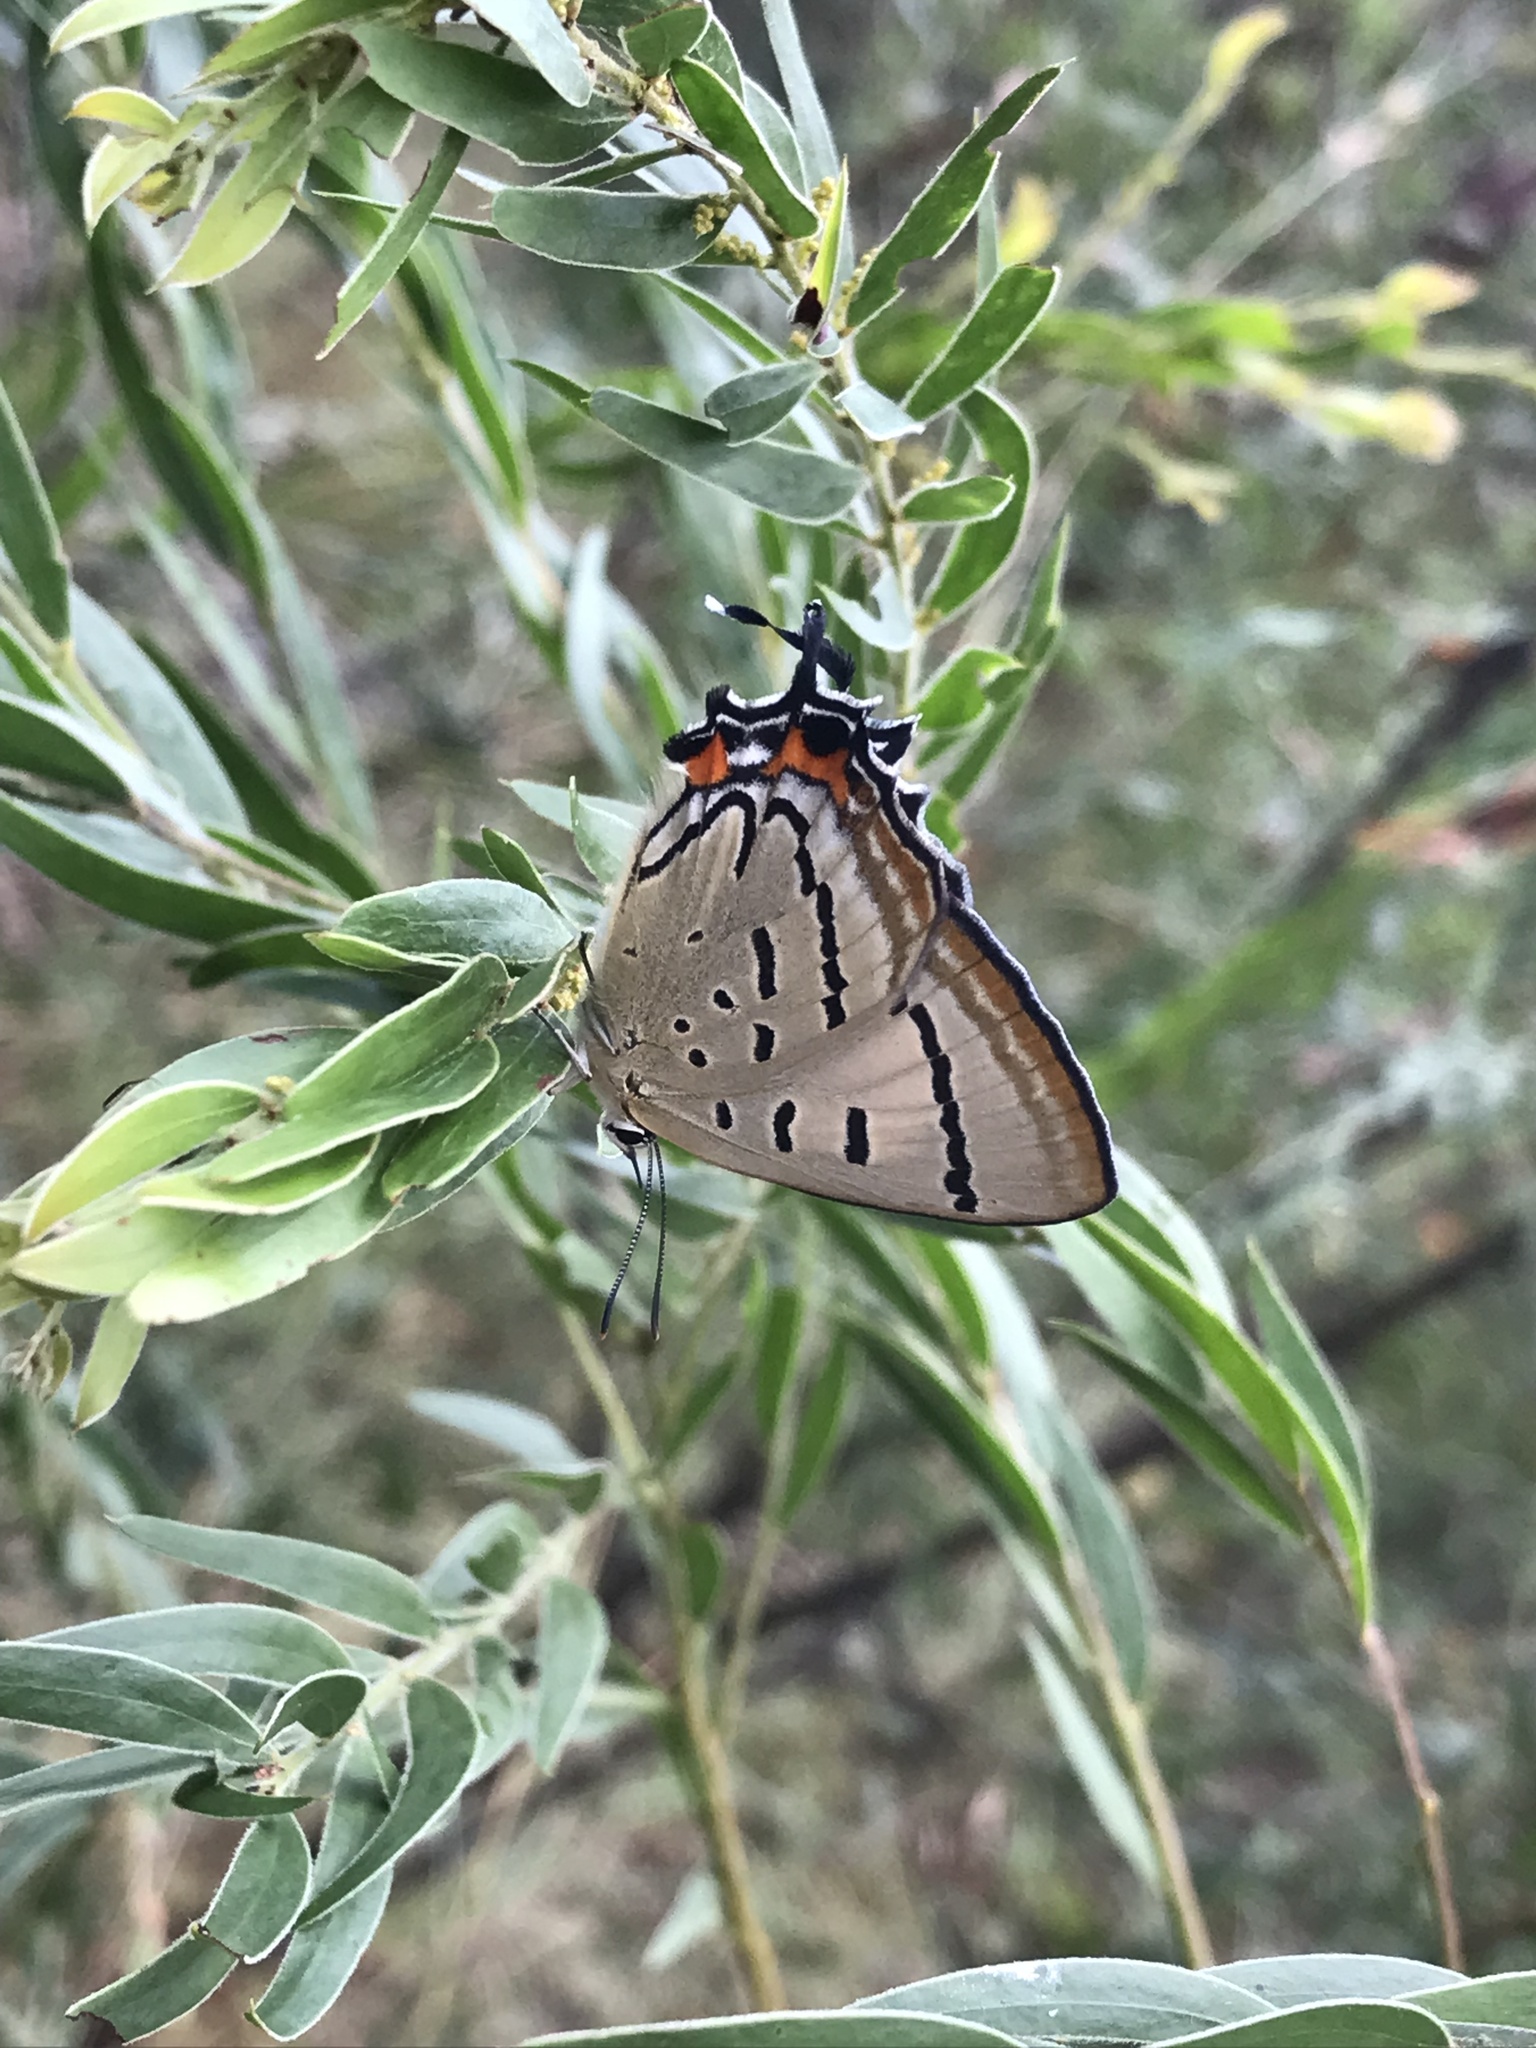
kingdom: Animalia
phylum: Arthropoda
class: Insecta
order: Lepidoptera
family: Lycaenidae
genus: Jalmenus
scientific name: Jalmenus evagoras
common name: Common imperial blue
